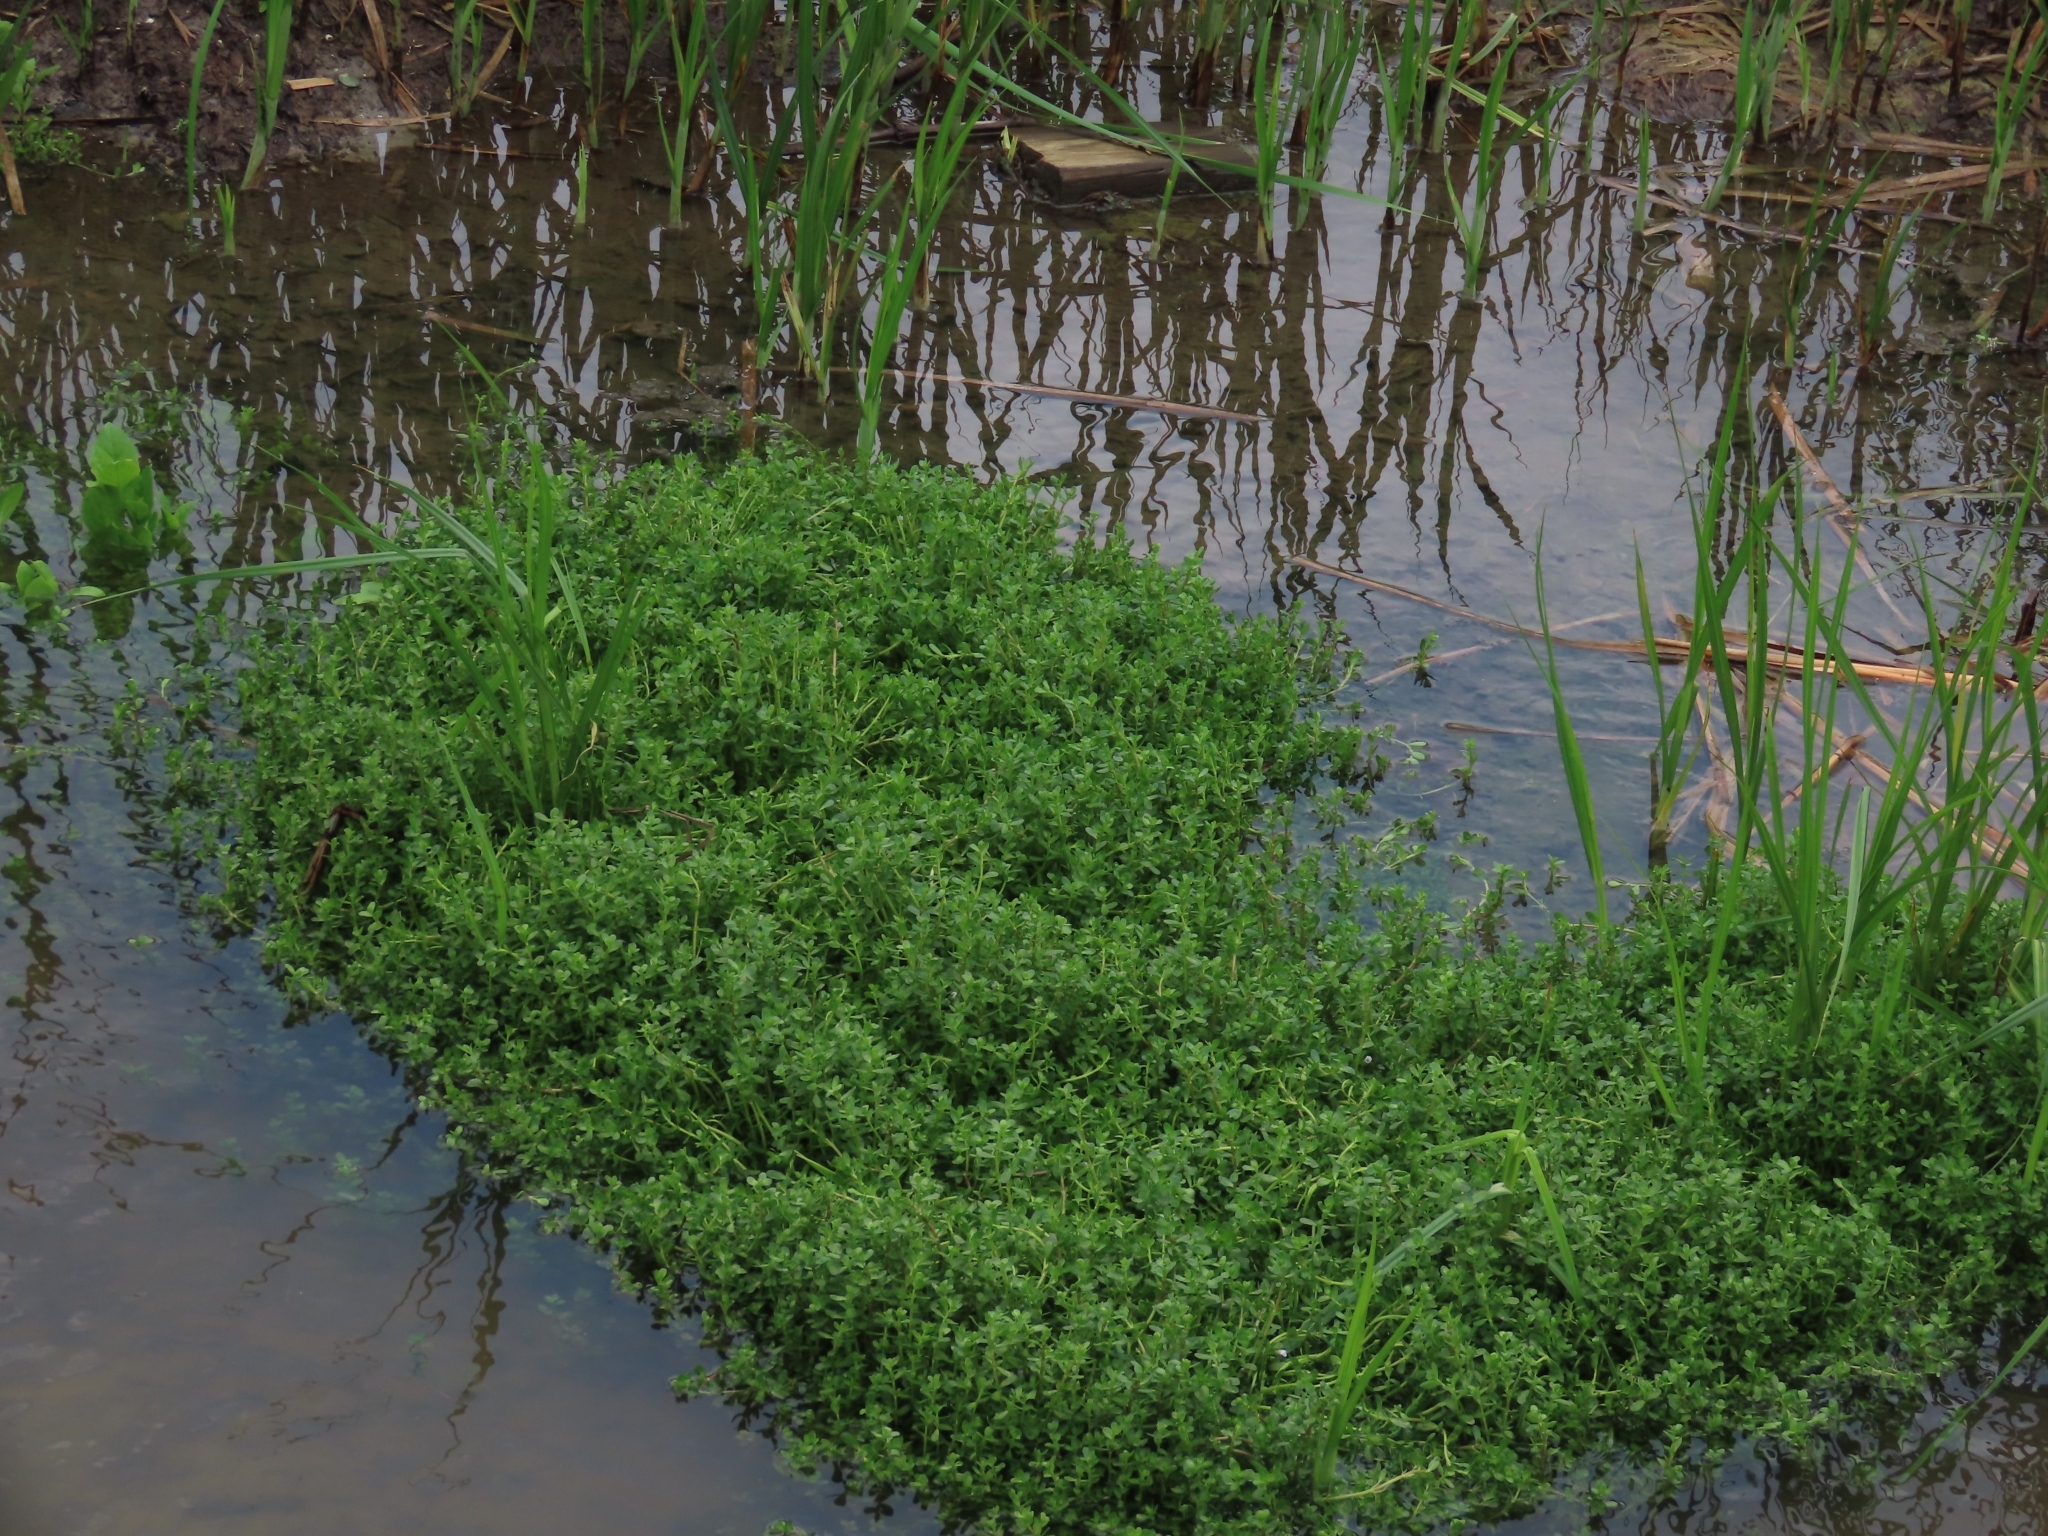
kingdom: Plantae
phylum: Tracheophyta
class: Magnoliopsida
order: Brassicales
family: Bataceae
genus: Batis
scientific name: Batis maritima
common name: Turtleweed
